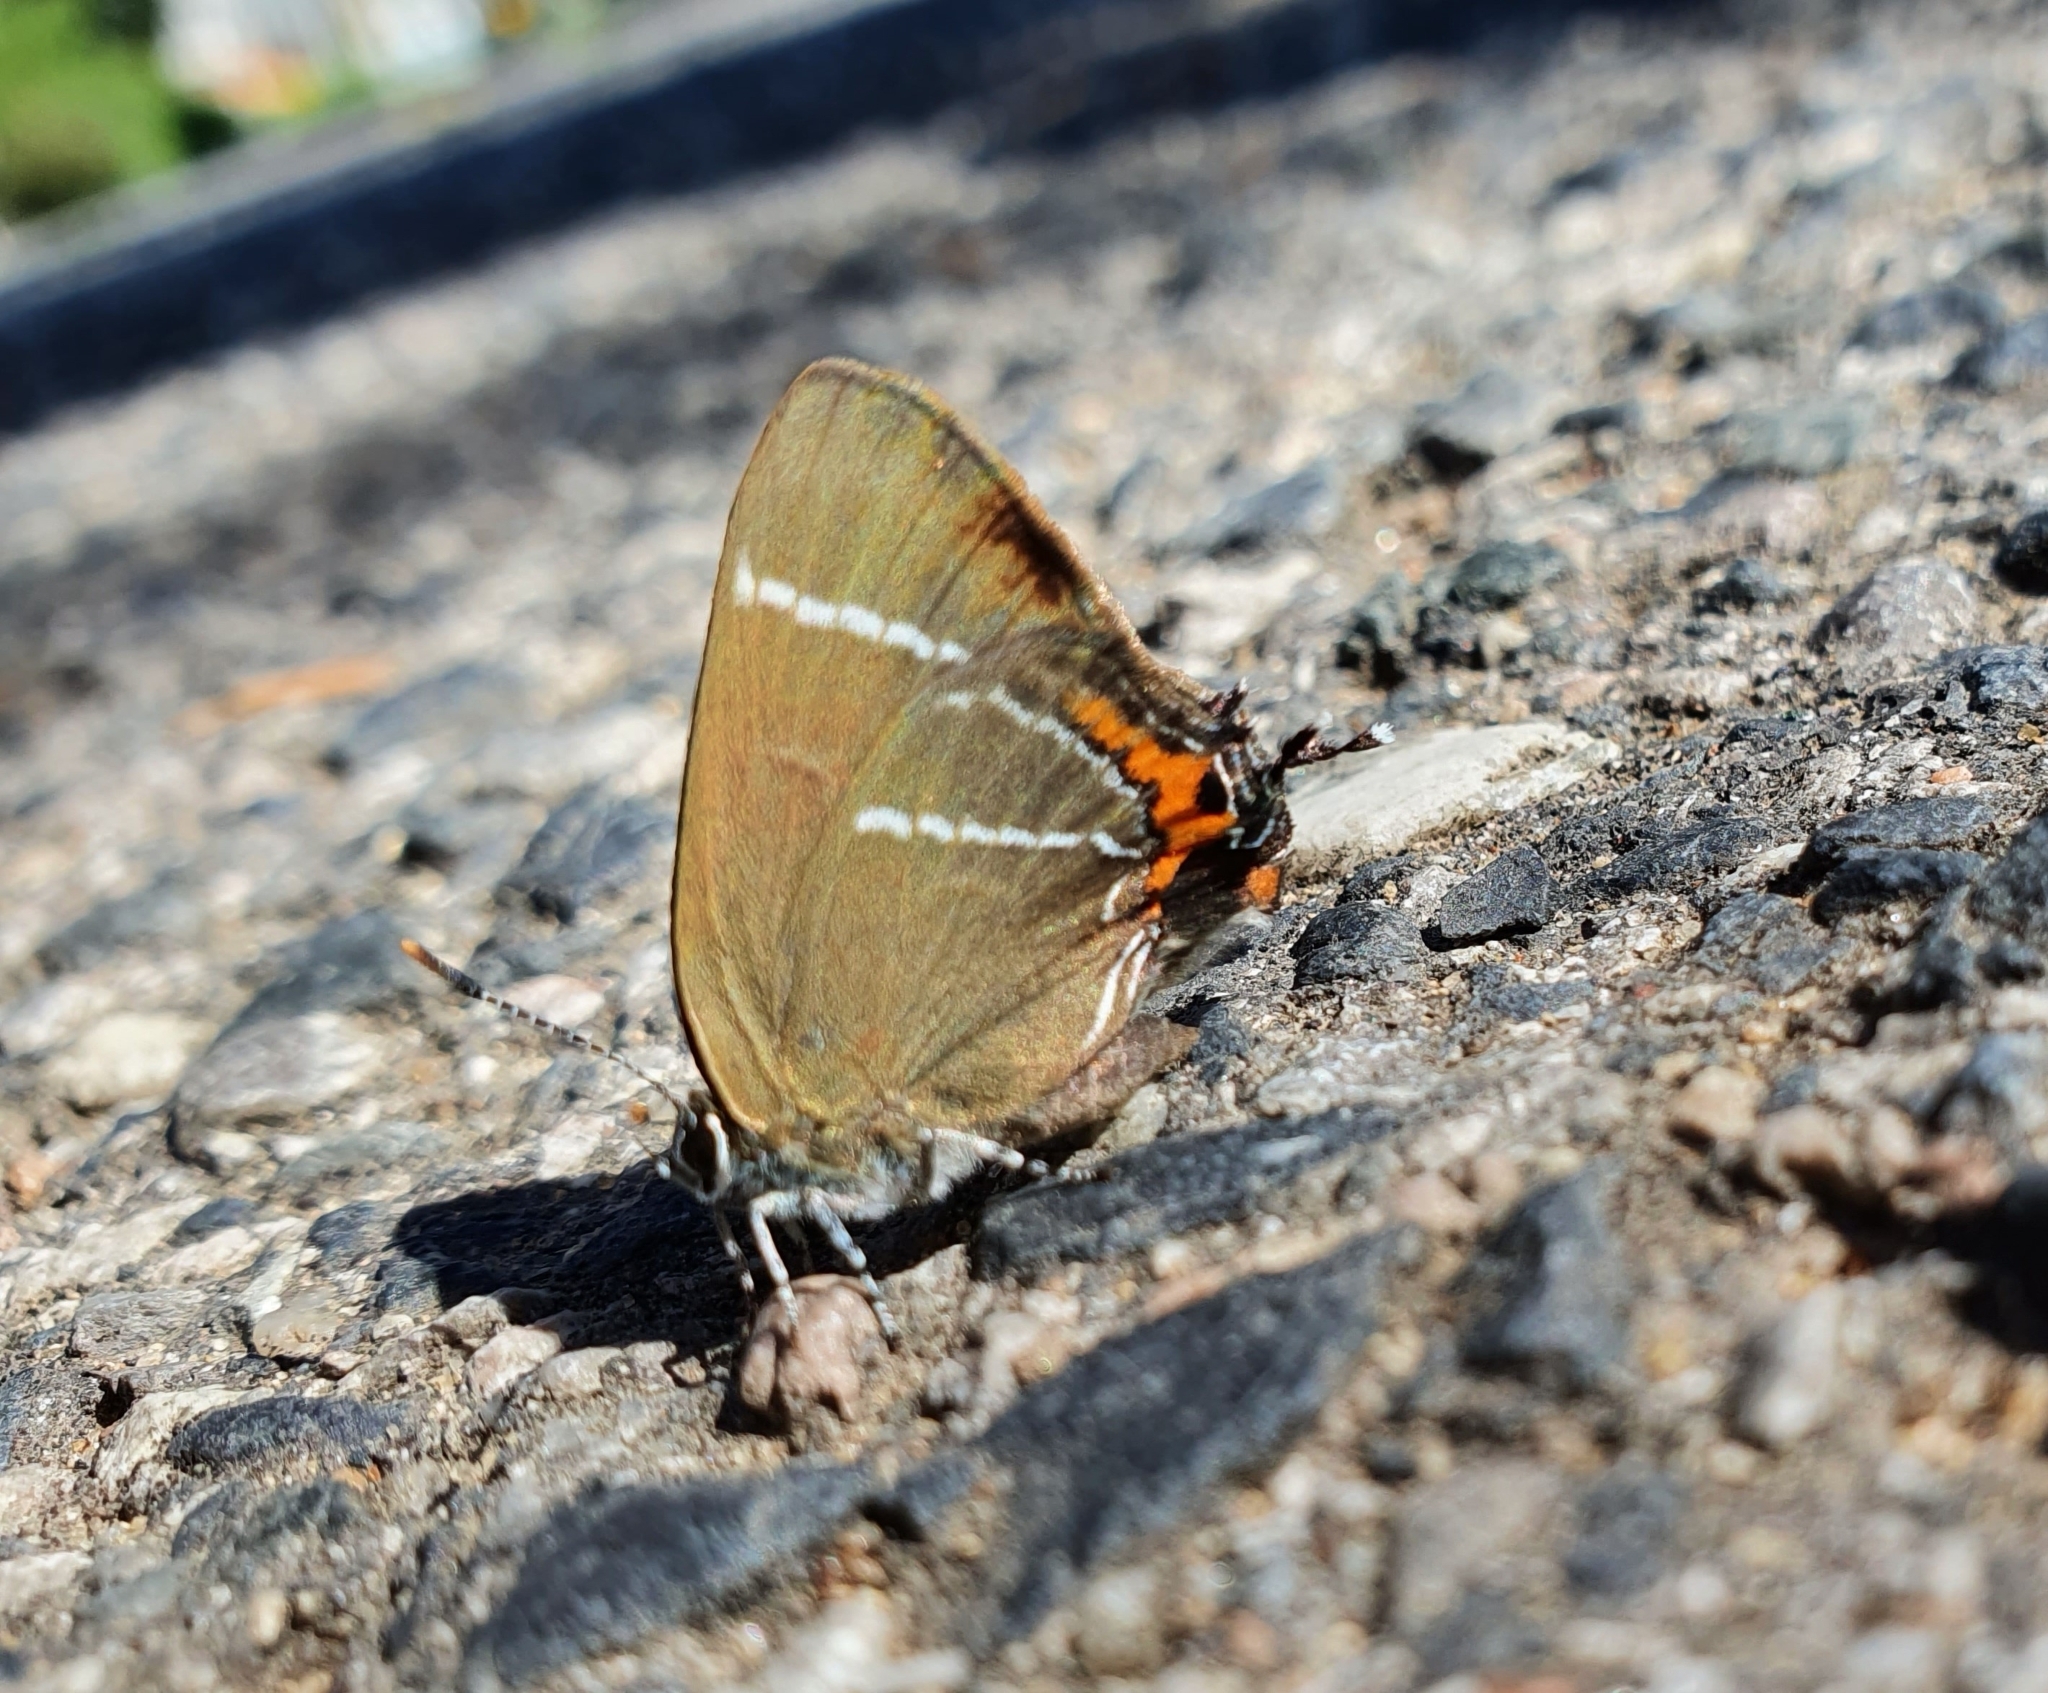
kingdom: Animalia
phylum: Arthropoda
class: Insecta
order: Lepidoptera
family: Lycaenidae
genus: Satyrium
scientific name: Satyrium w-album
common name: White-letter hairstreak
